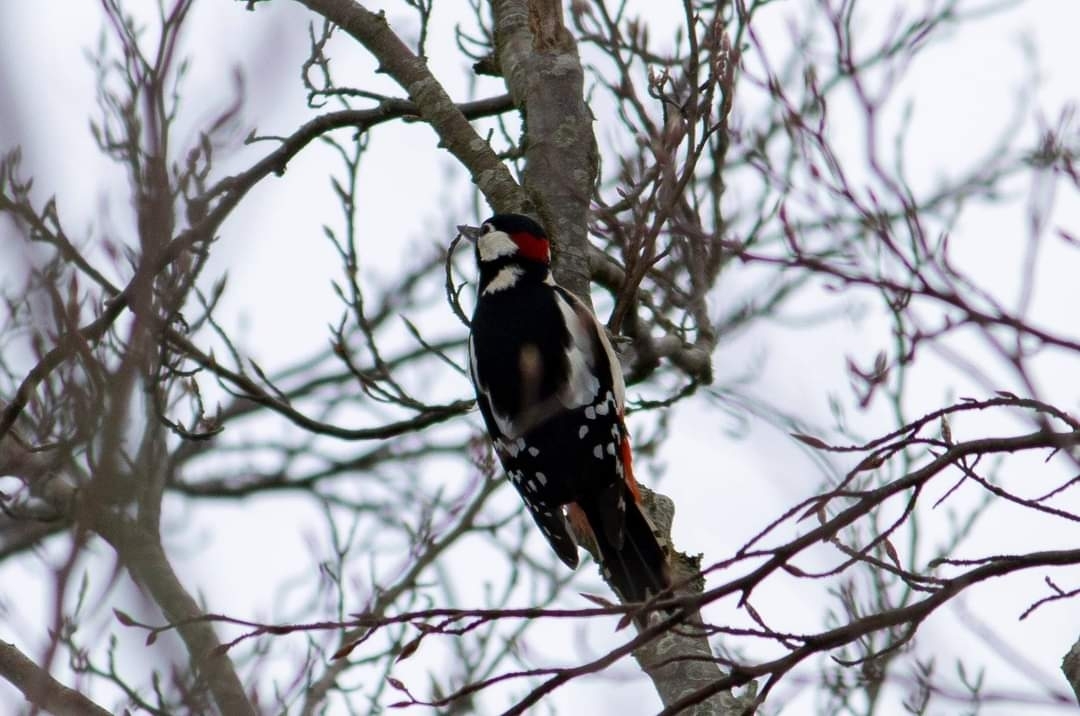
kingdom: Animalia
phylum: Chordata
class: Aves
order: Piciformes
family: Picidae
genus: Dendrocopos
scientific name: Dendrocopos major
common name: Great spotted woodpecker
